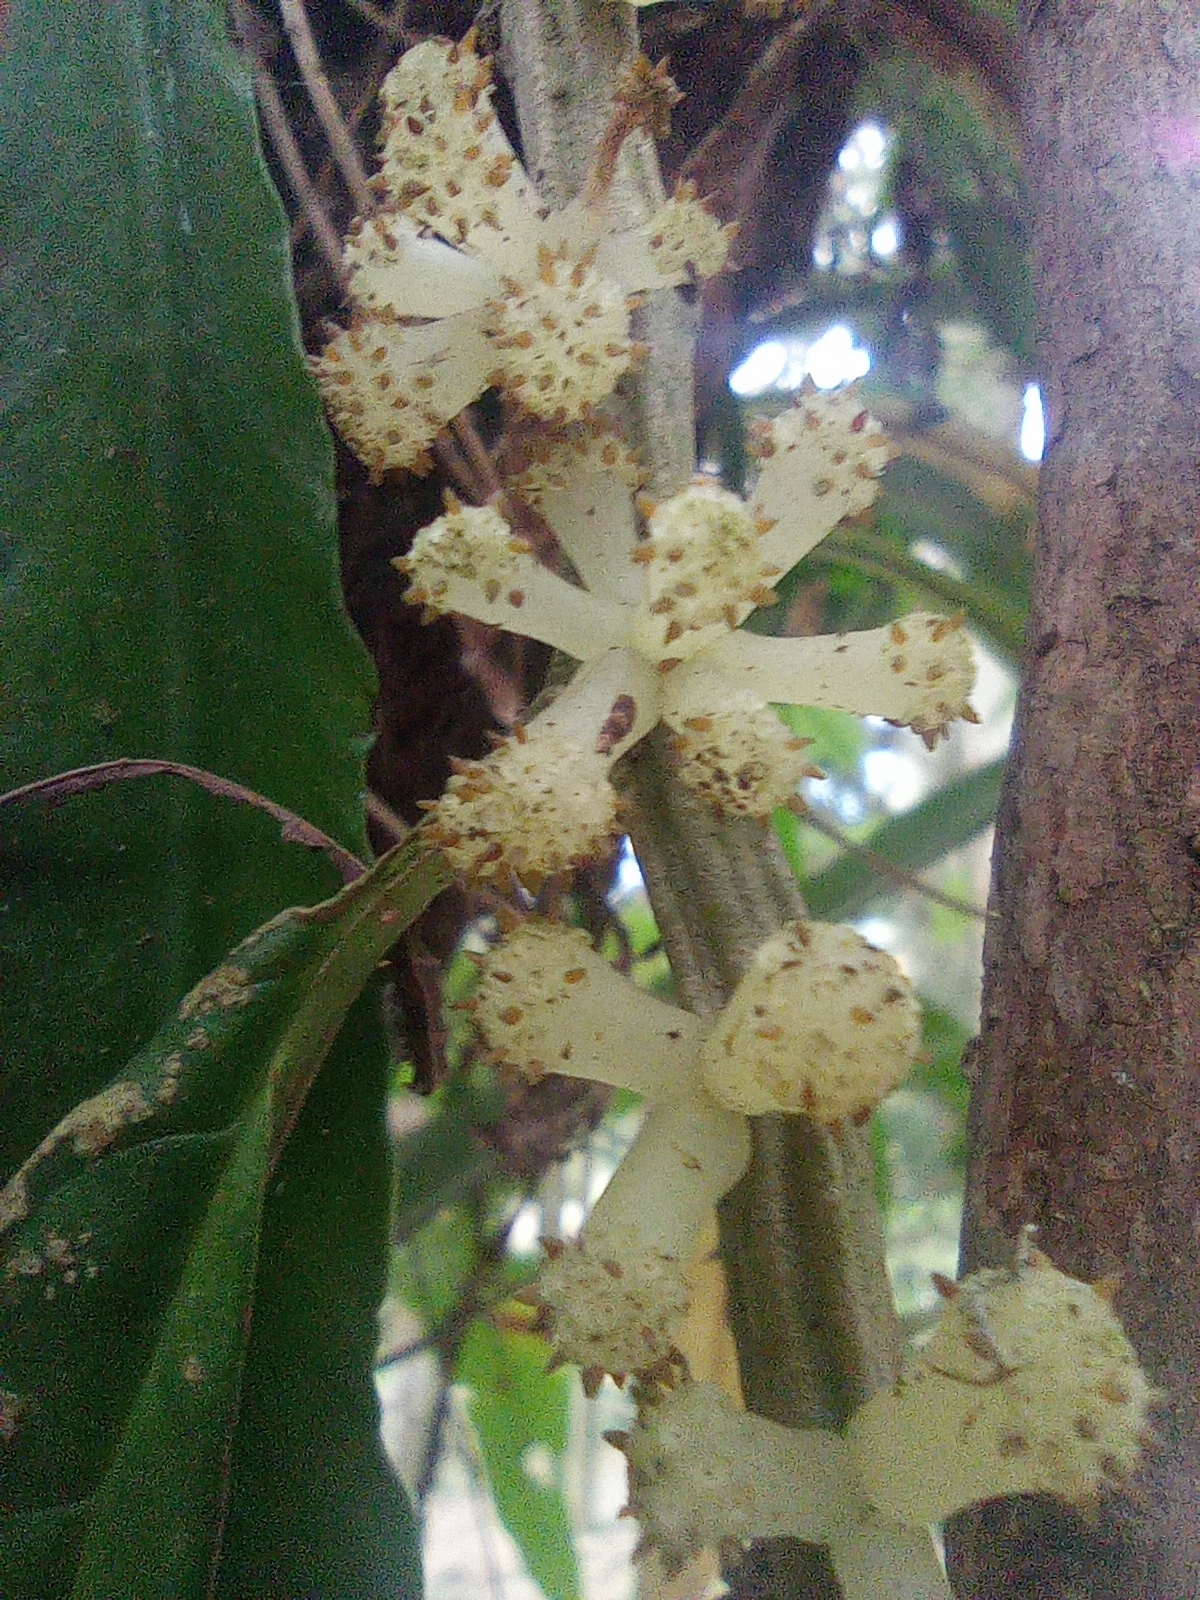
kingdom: Plantae
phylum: Tracheophyta
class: Magnoliopsida
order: Rosales
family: Urticaceae
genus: Procris
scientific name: Procris
